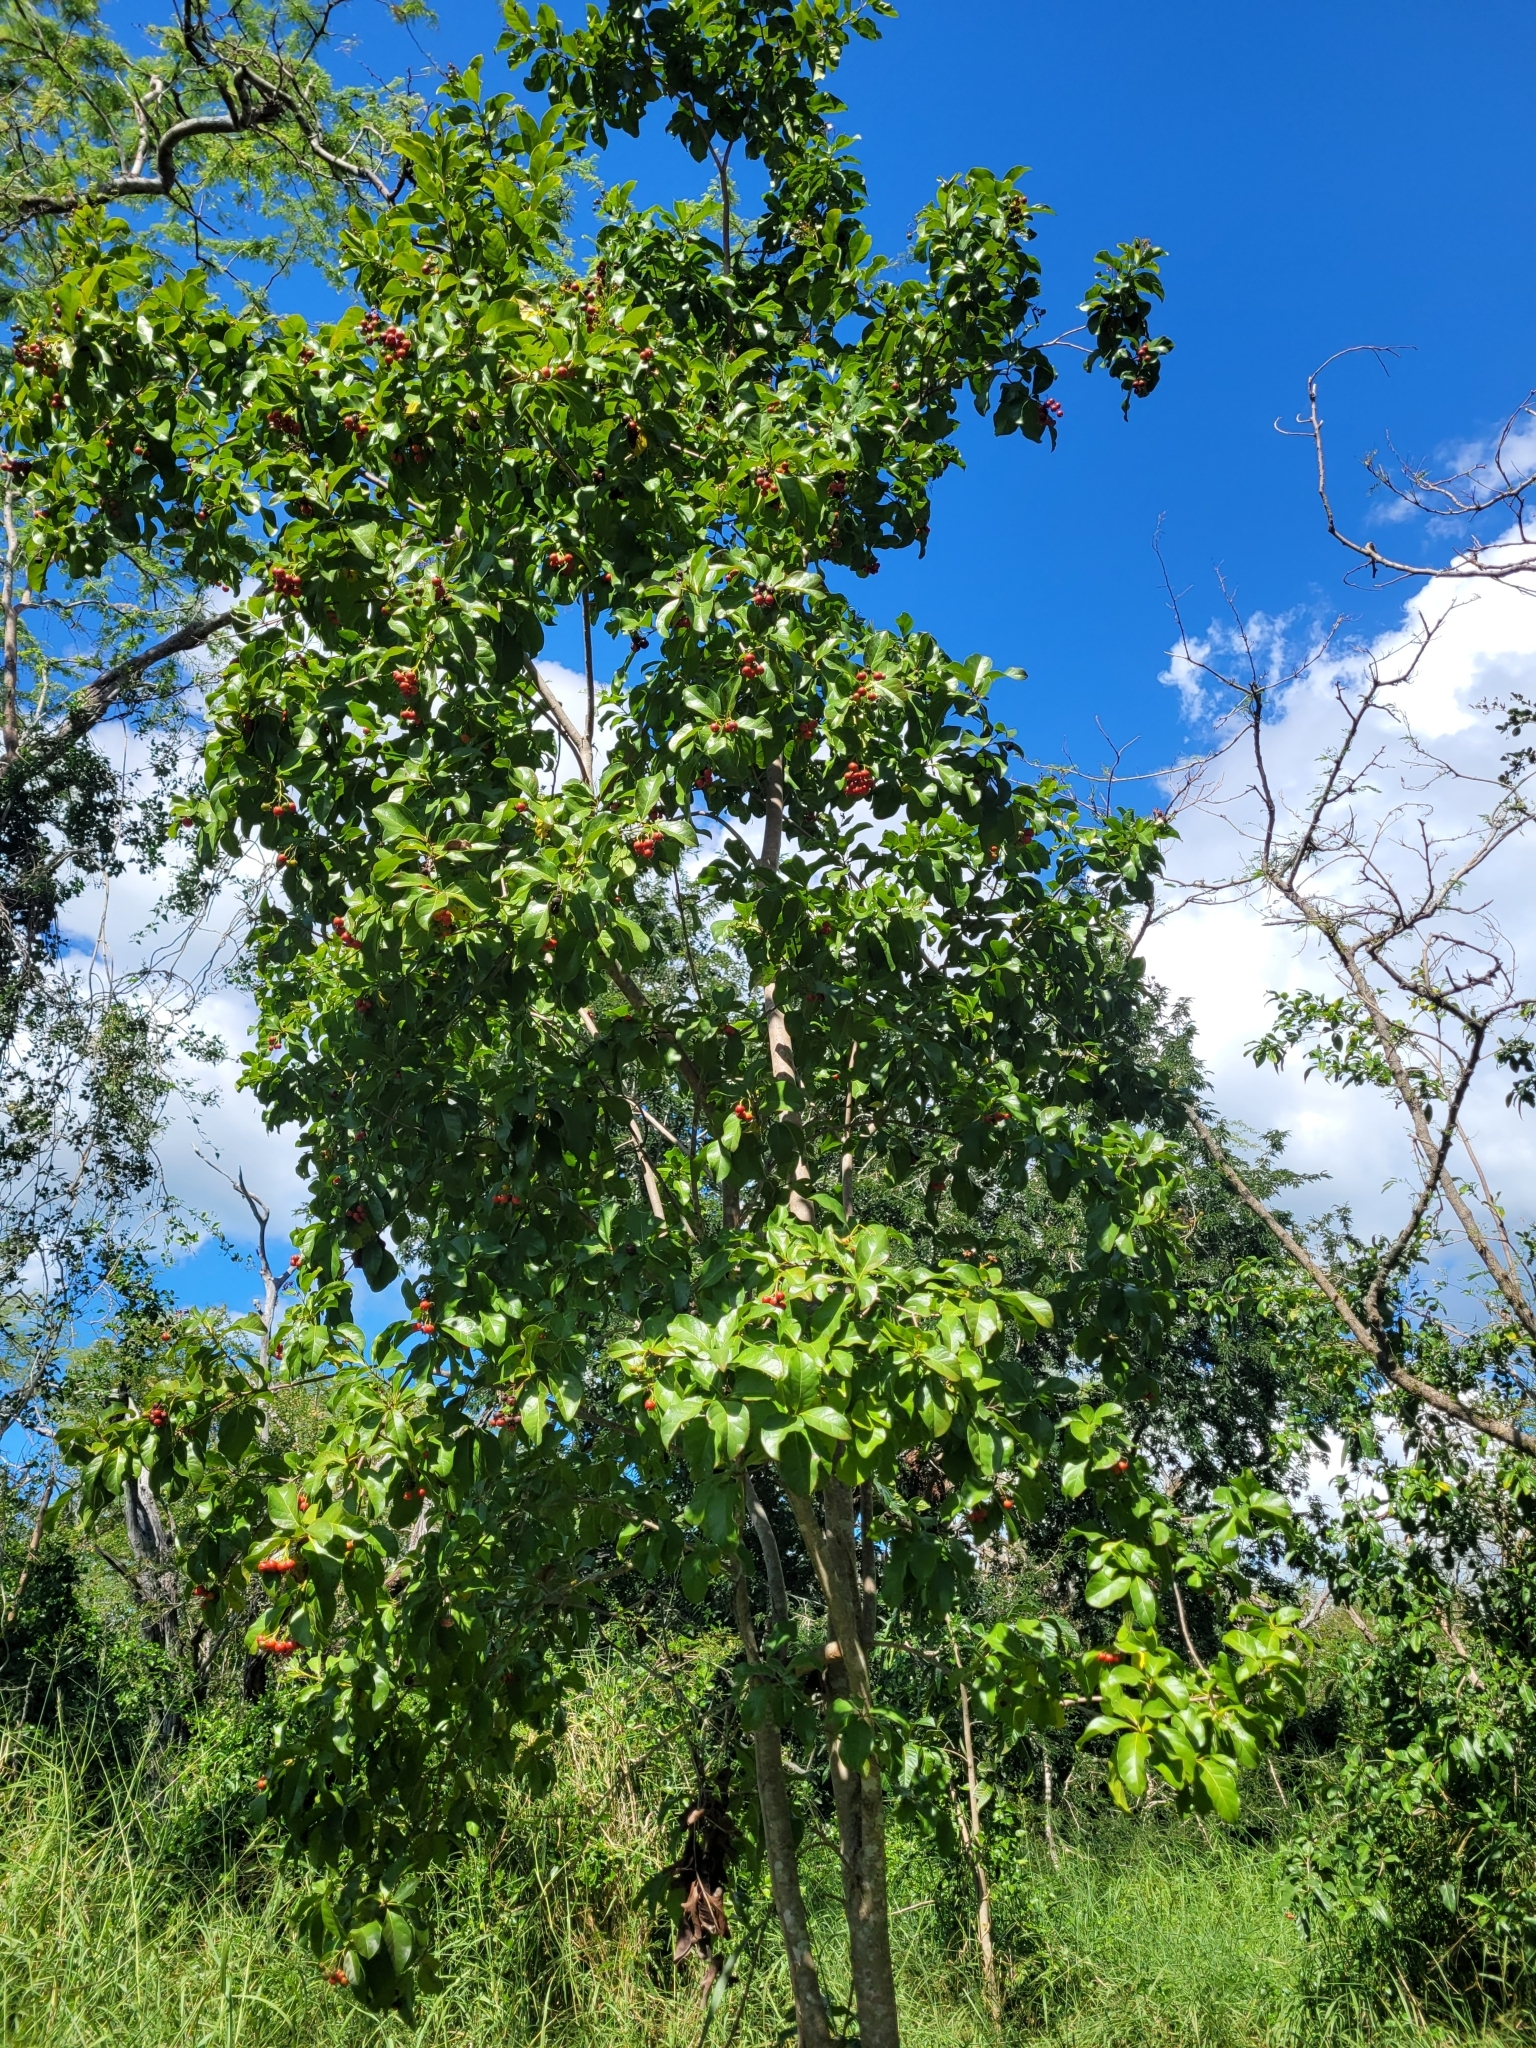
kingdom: Plantae
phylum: Tracheophyta
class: Magnoliopsida
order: Boraginales
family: Ehretiaceae
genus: Bourreria
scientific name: Bourreria succulenta
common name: Cherry
